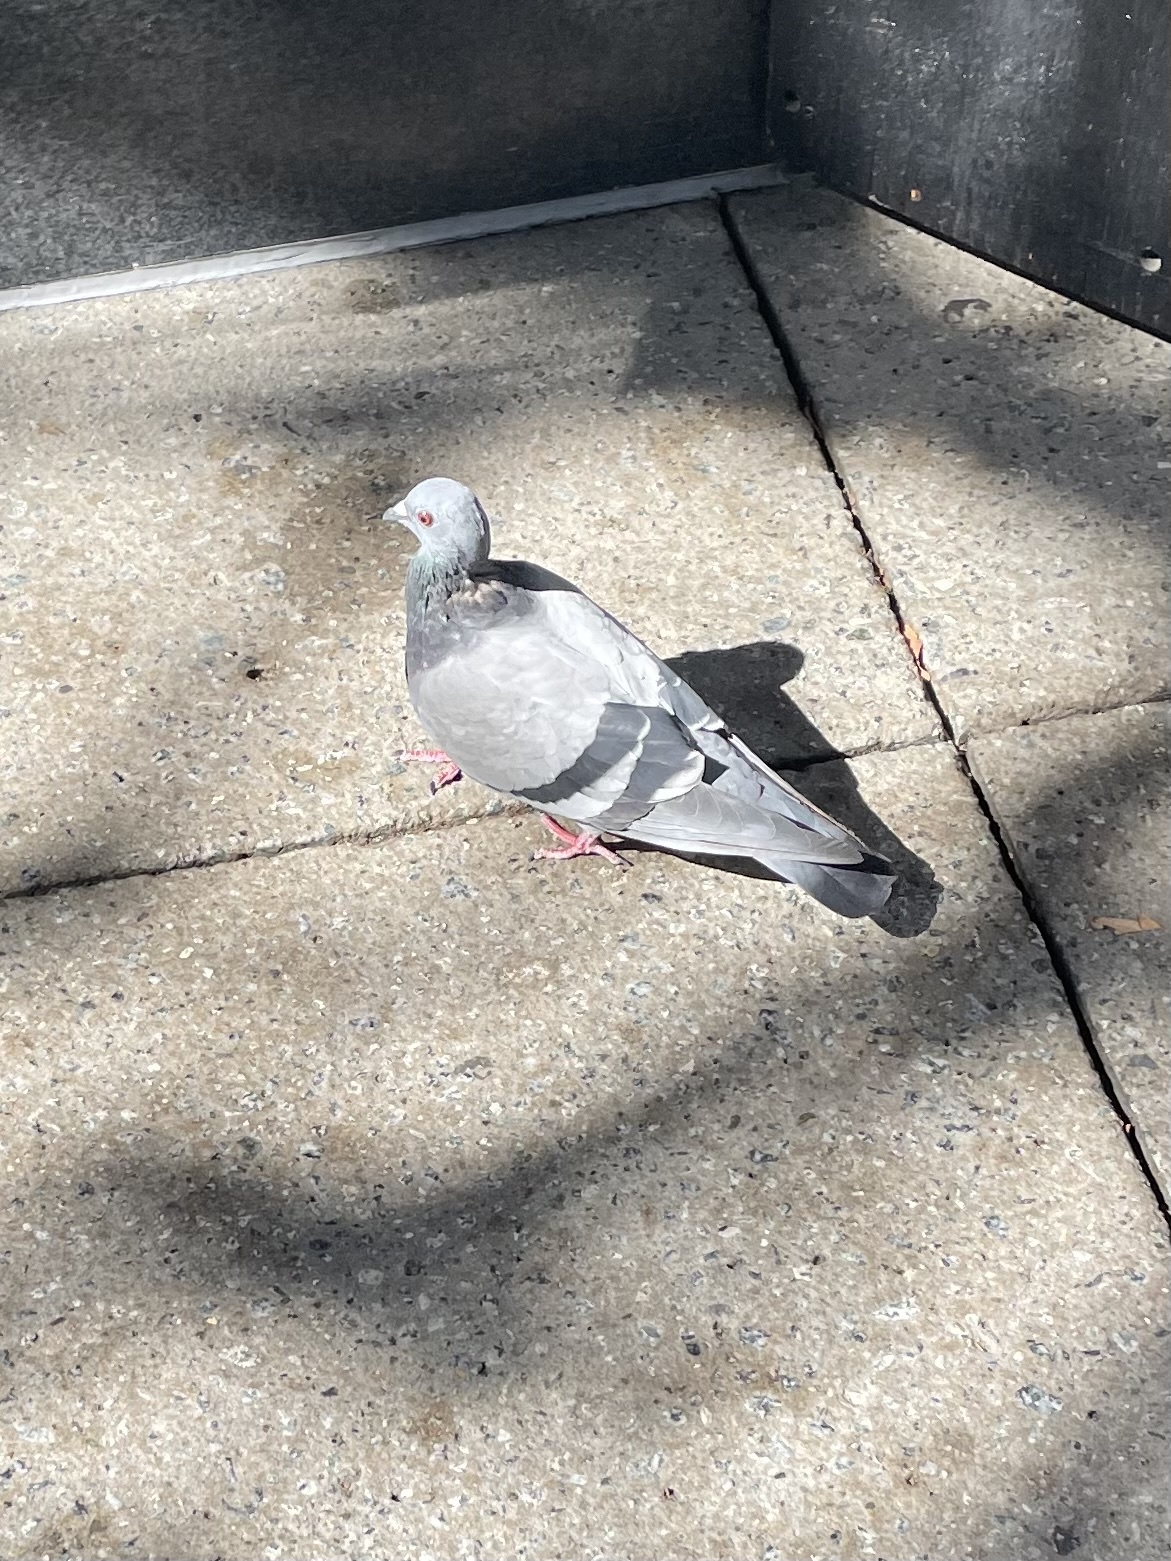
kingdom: Animalia
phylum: Chordata
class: Aves
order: Columbiformes
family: Columbidae
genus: Columba
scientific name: Columba livia
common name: Rock pigeon
